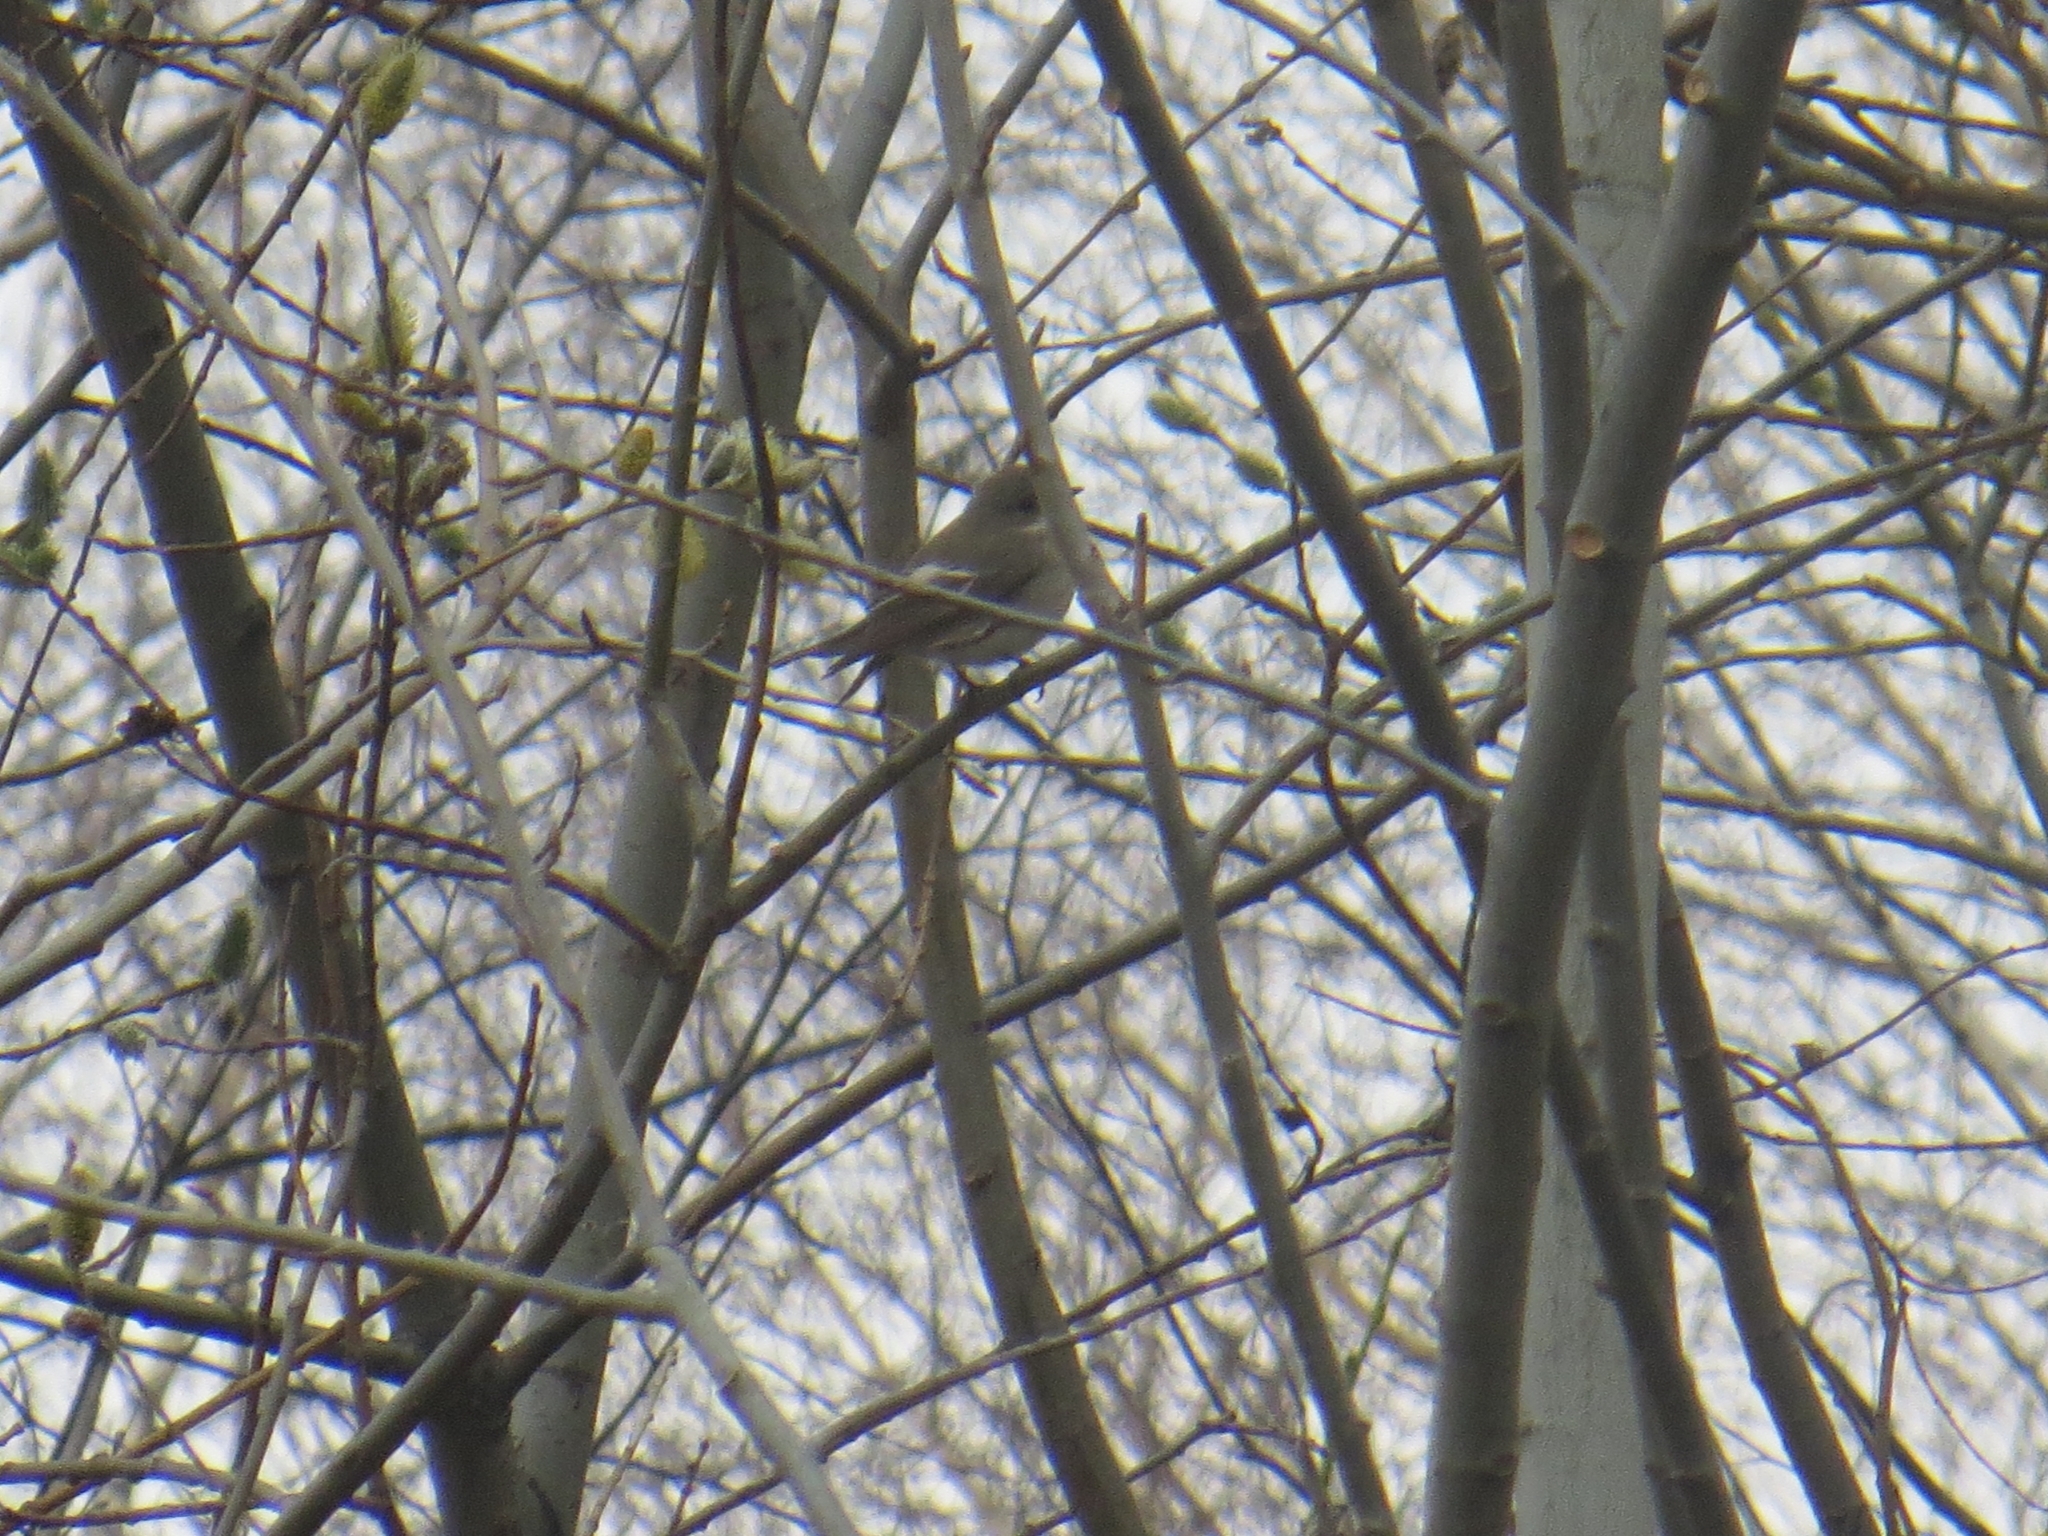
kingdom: Animalia
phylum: Chordata
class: Aves
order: Passeriformes
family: Muscicapidae
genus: Ficedula
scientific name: Ficedula hypoleuca
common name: European pied flycatcher
